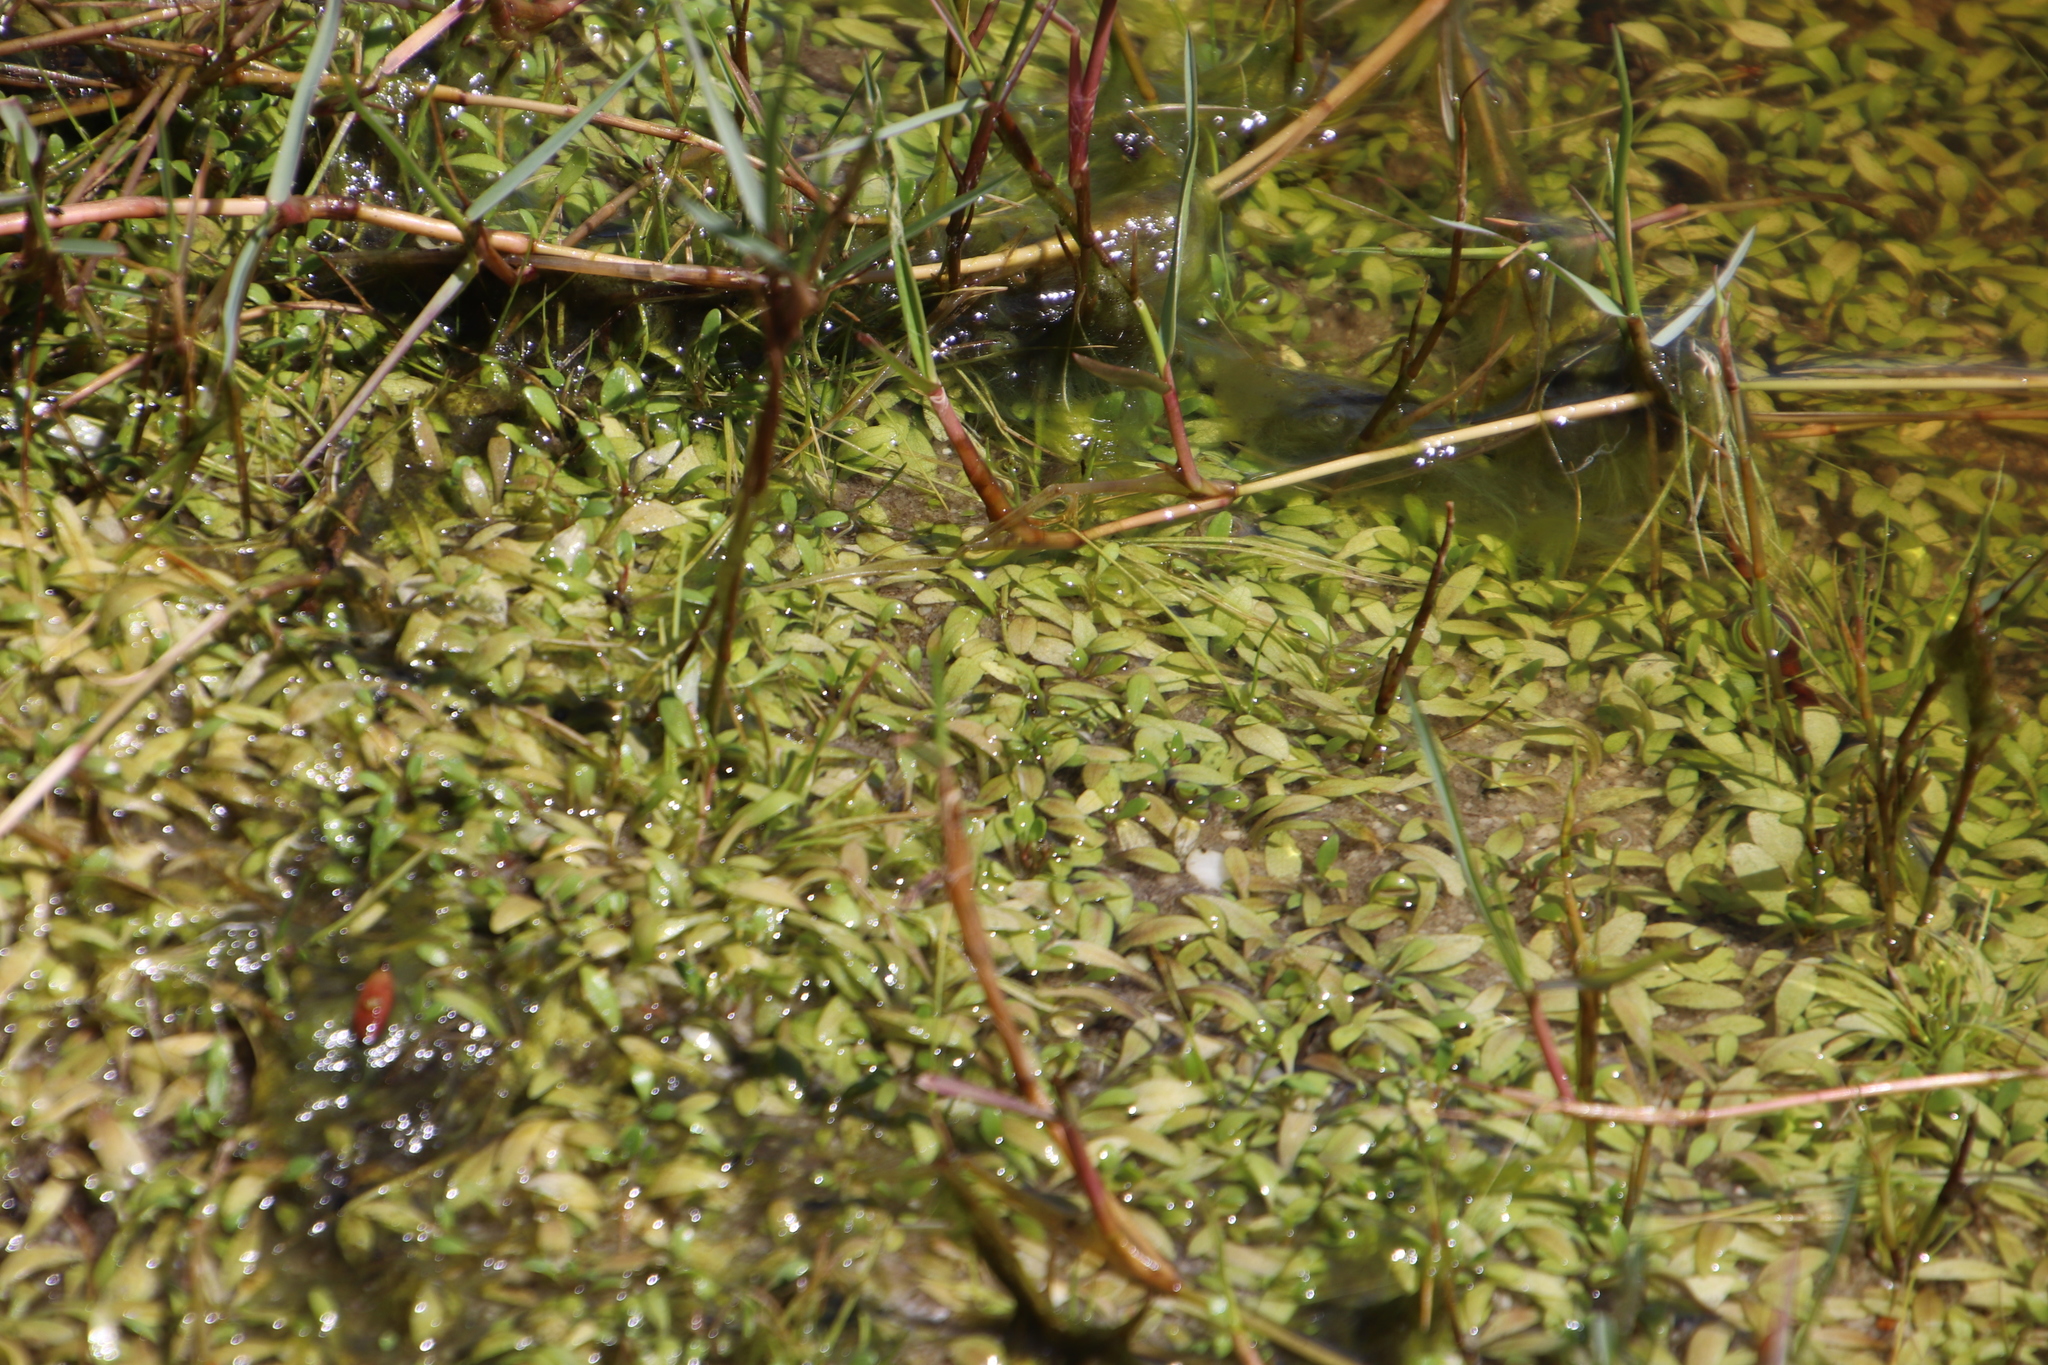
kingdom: Plantae
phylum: Tracheophyta
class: Magnoliopsida
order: Asterales
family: Campanulaceae
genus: Wimmerella
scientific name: Wimmerella arabidea
